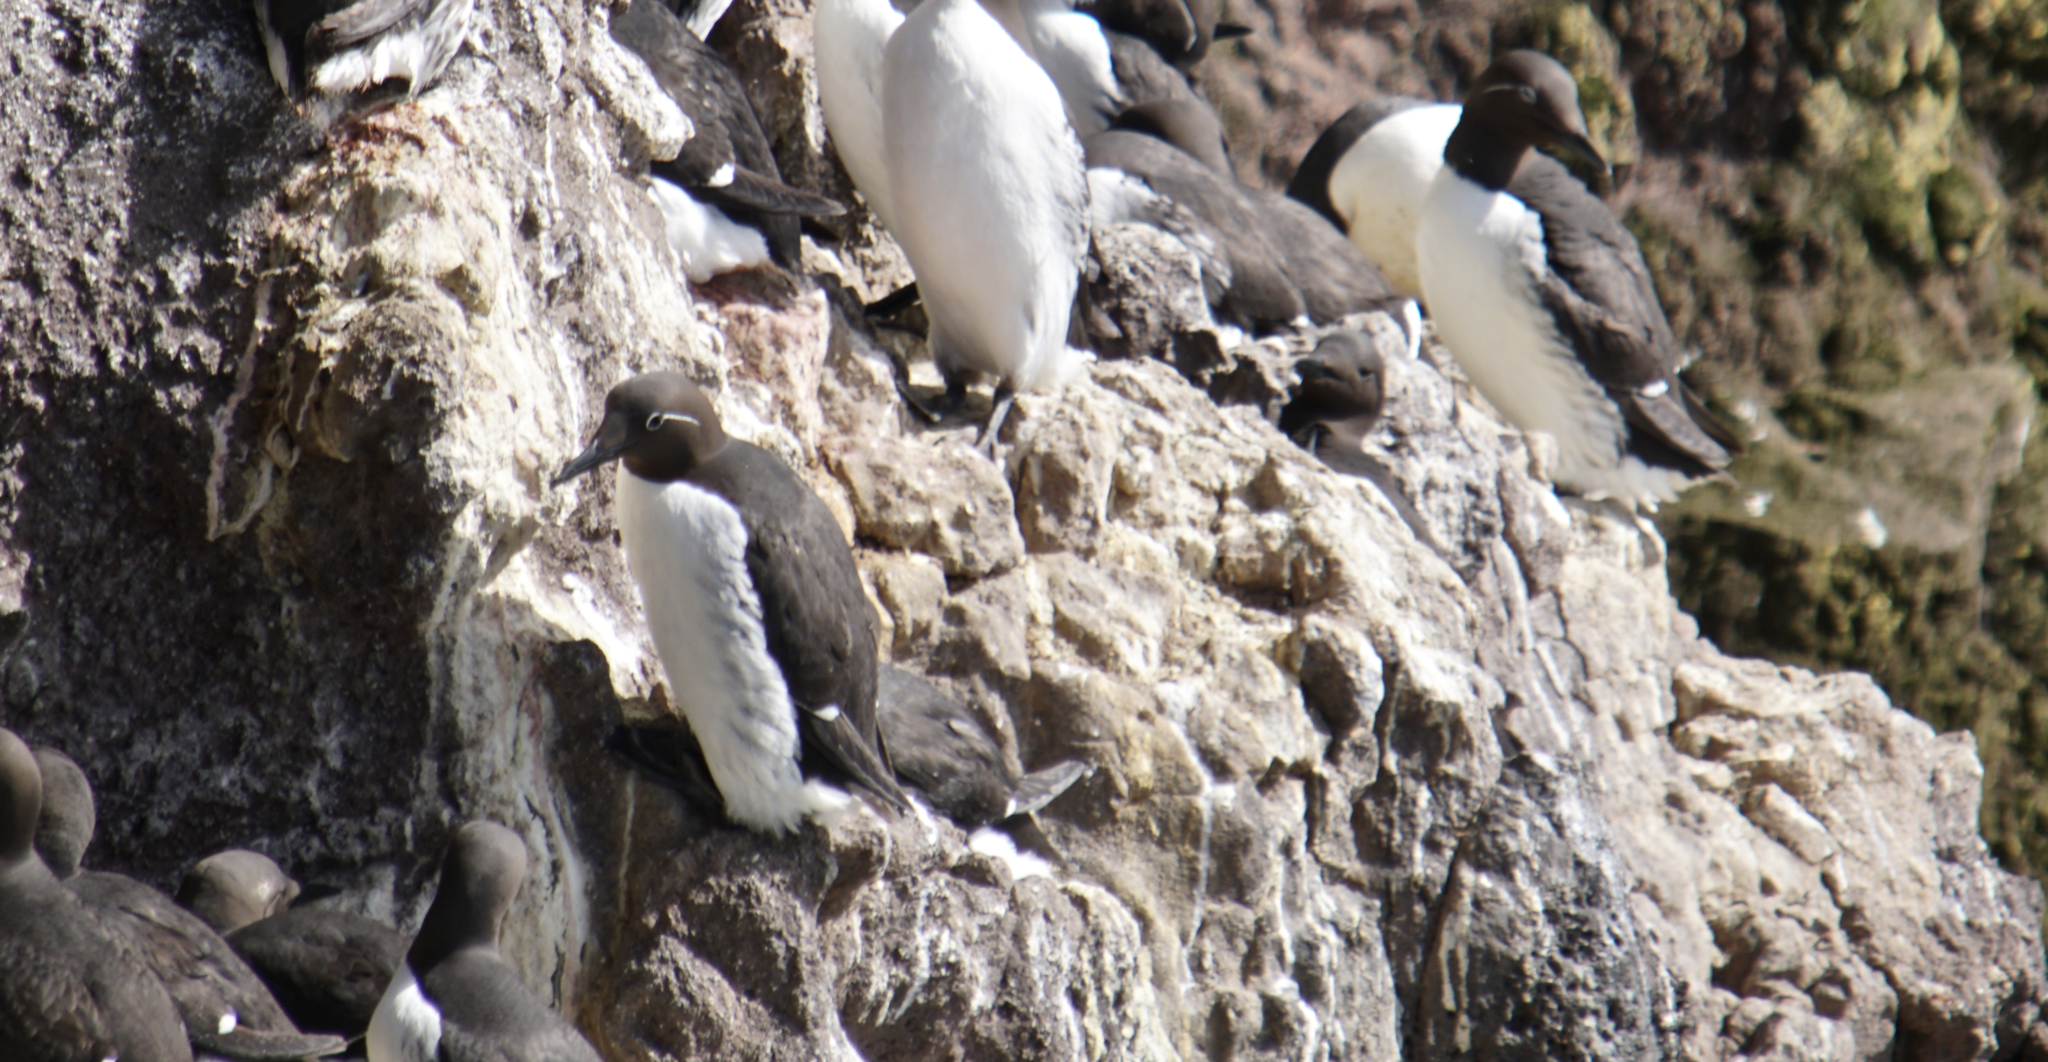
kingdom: Animalia
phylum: Chordata
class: Aves
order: Charadriiformes
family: Alcidae
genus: Uria
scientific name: Uria aalge
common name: Common murre
